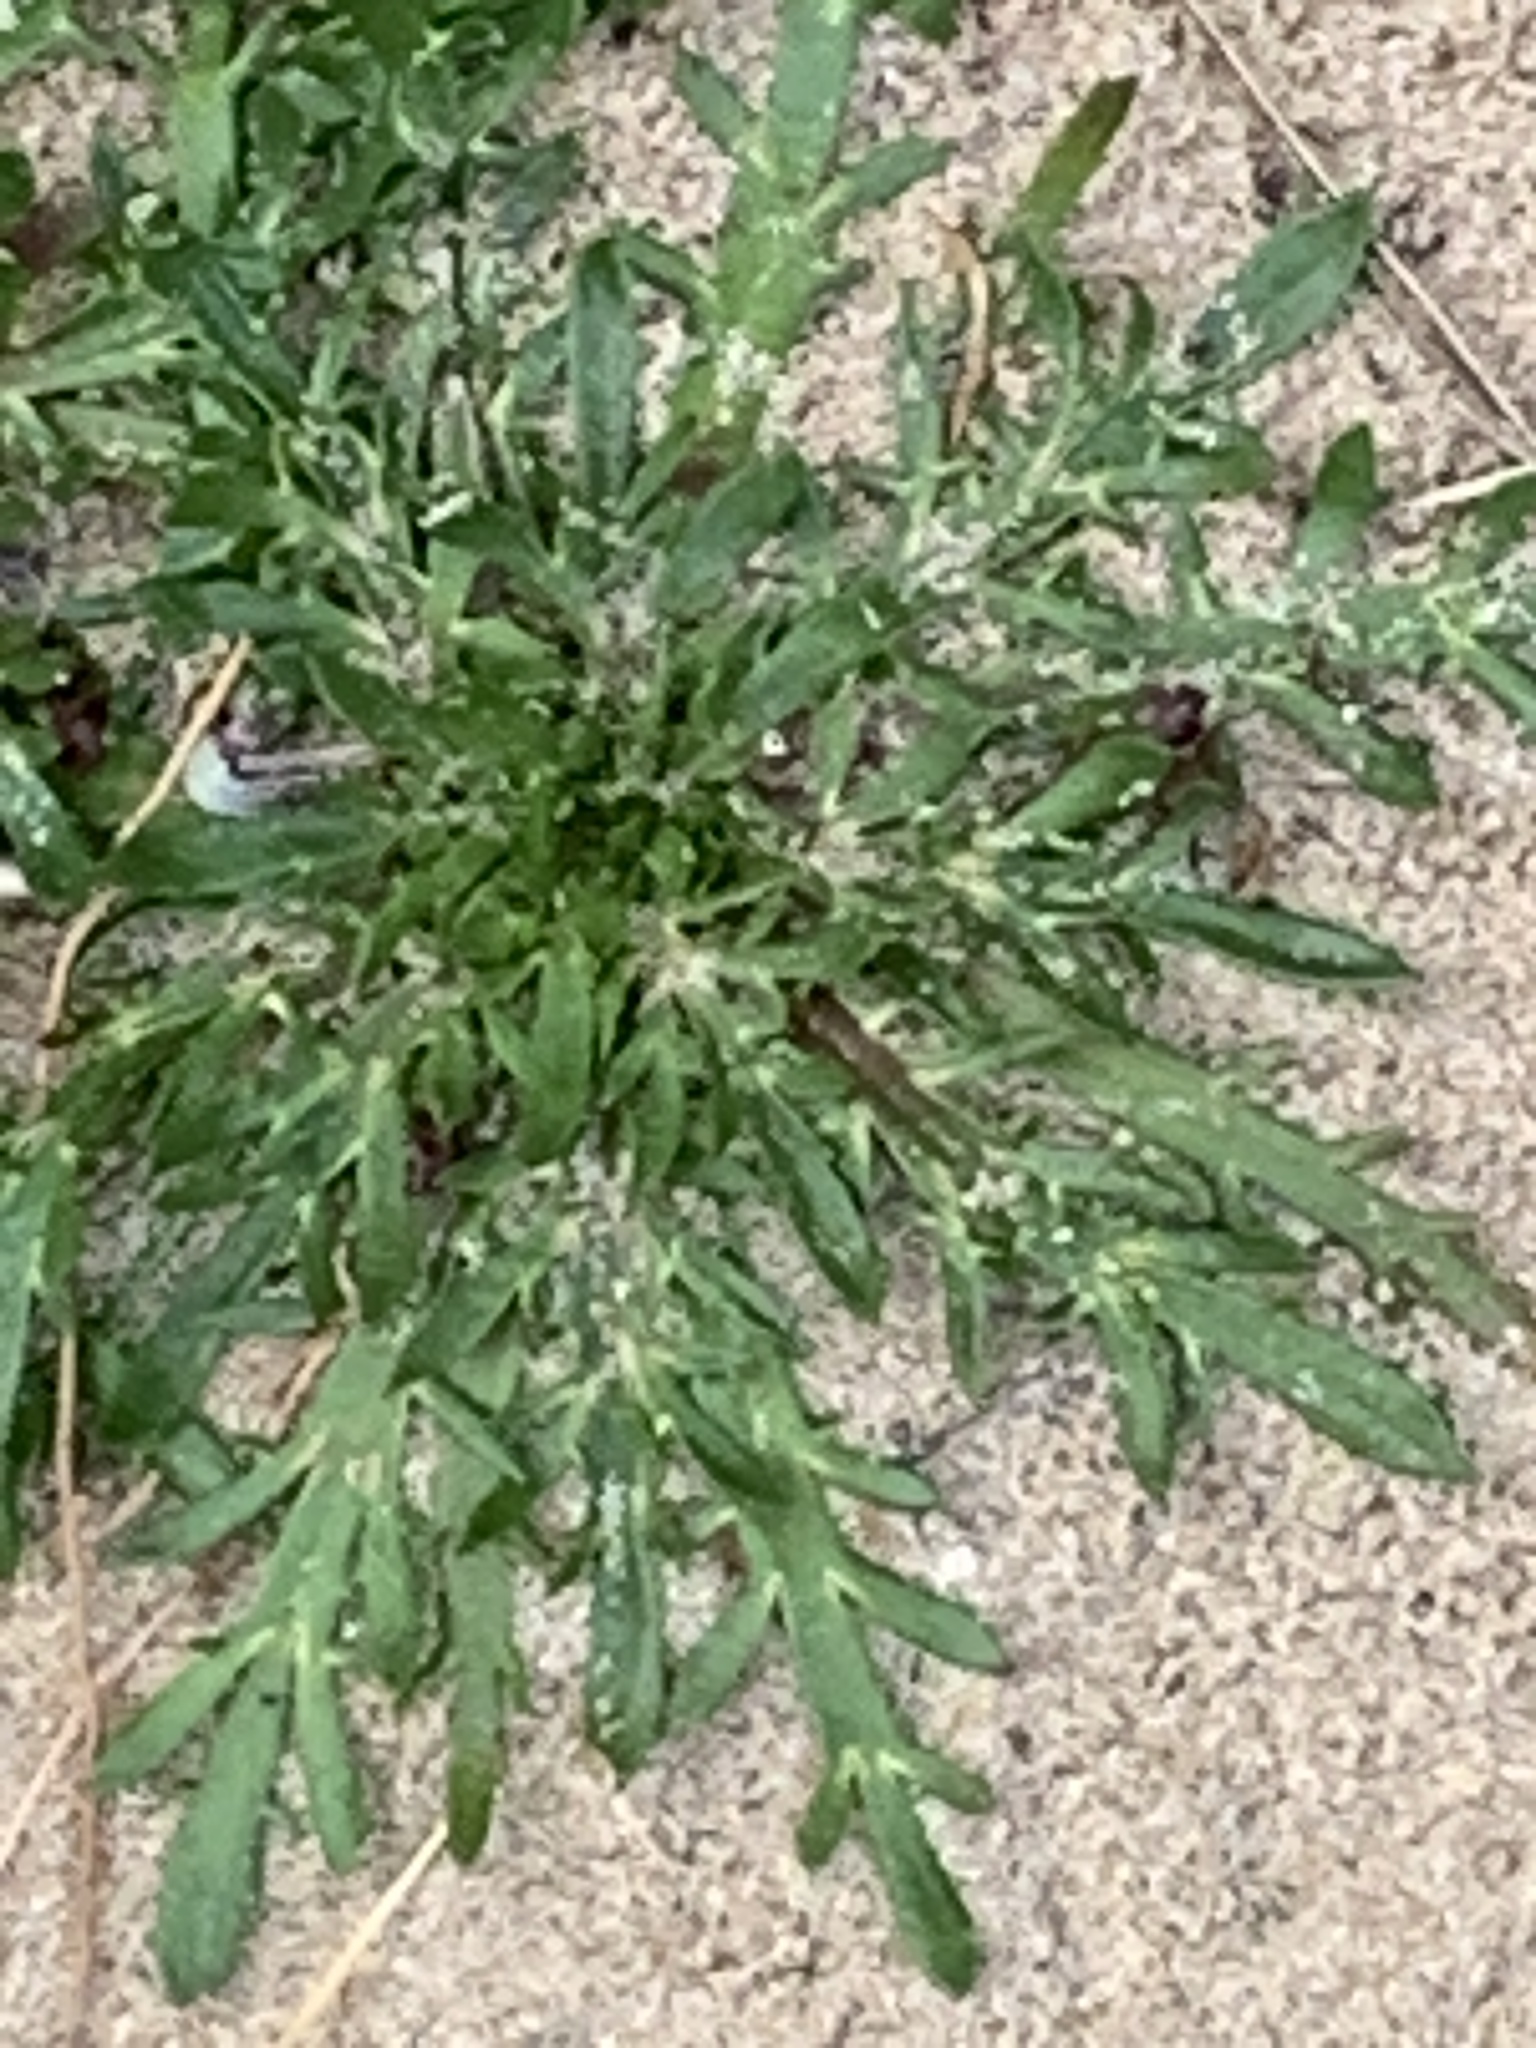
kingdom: Plantae
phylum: Tracheophyta
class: Magnoliopsida
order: Lamiales
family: Plantaginaceae
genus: Plantago
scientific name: Plantago coronopus
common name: Buck's-horn plantain
